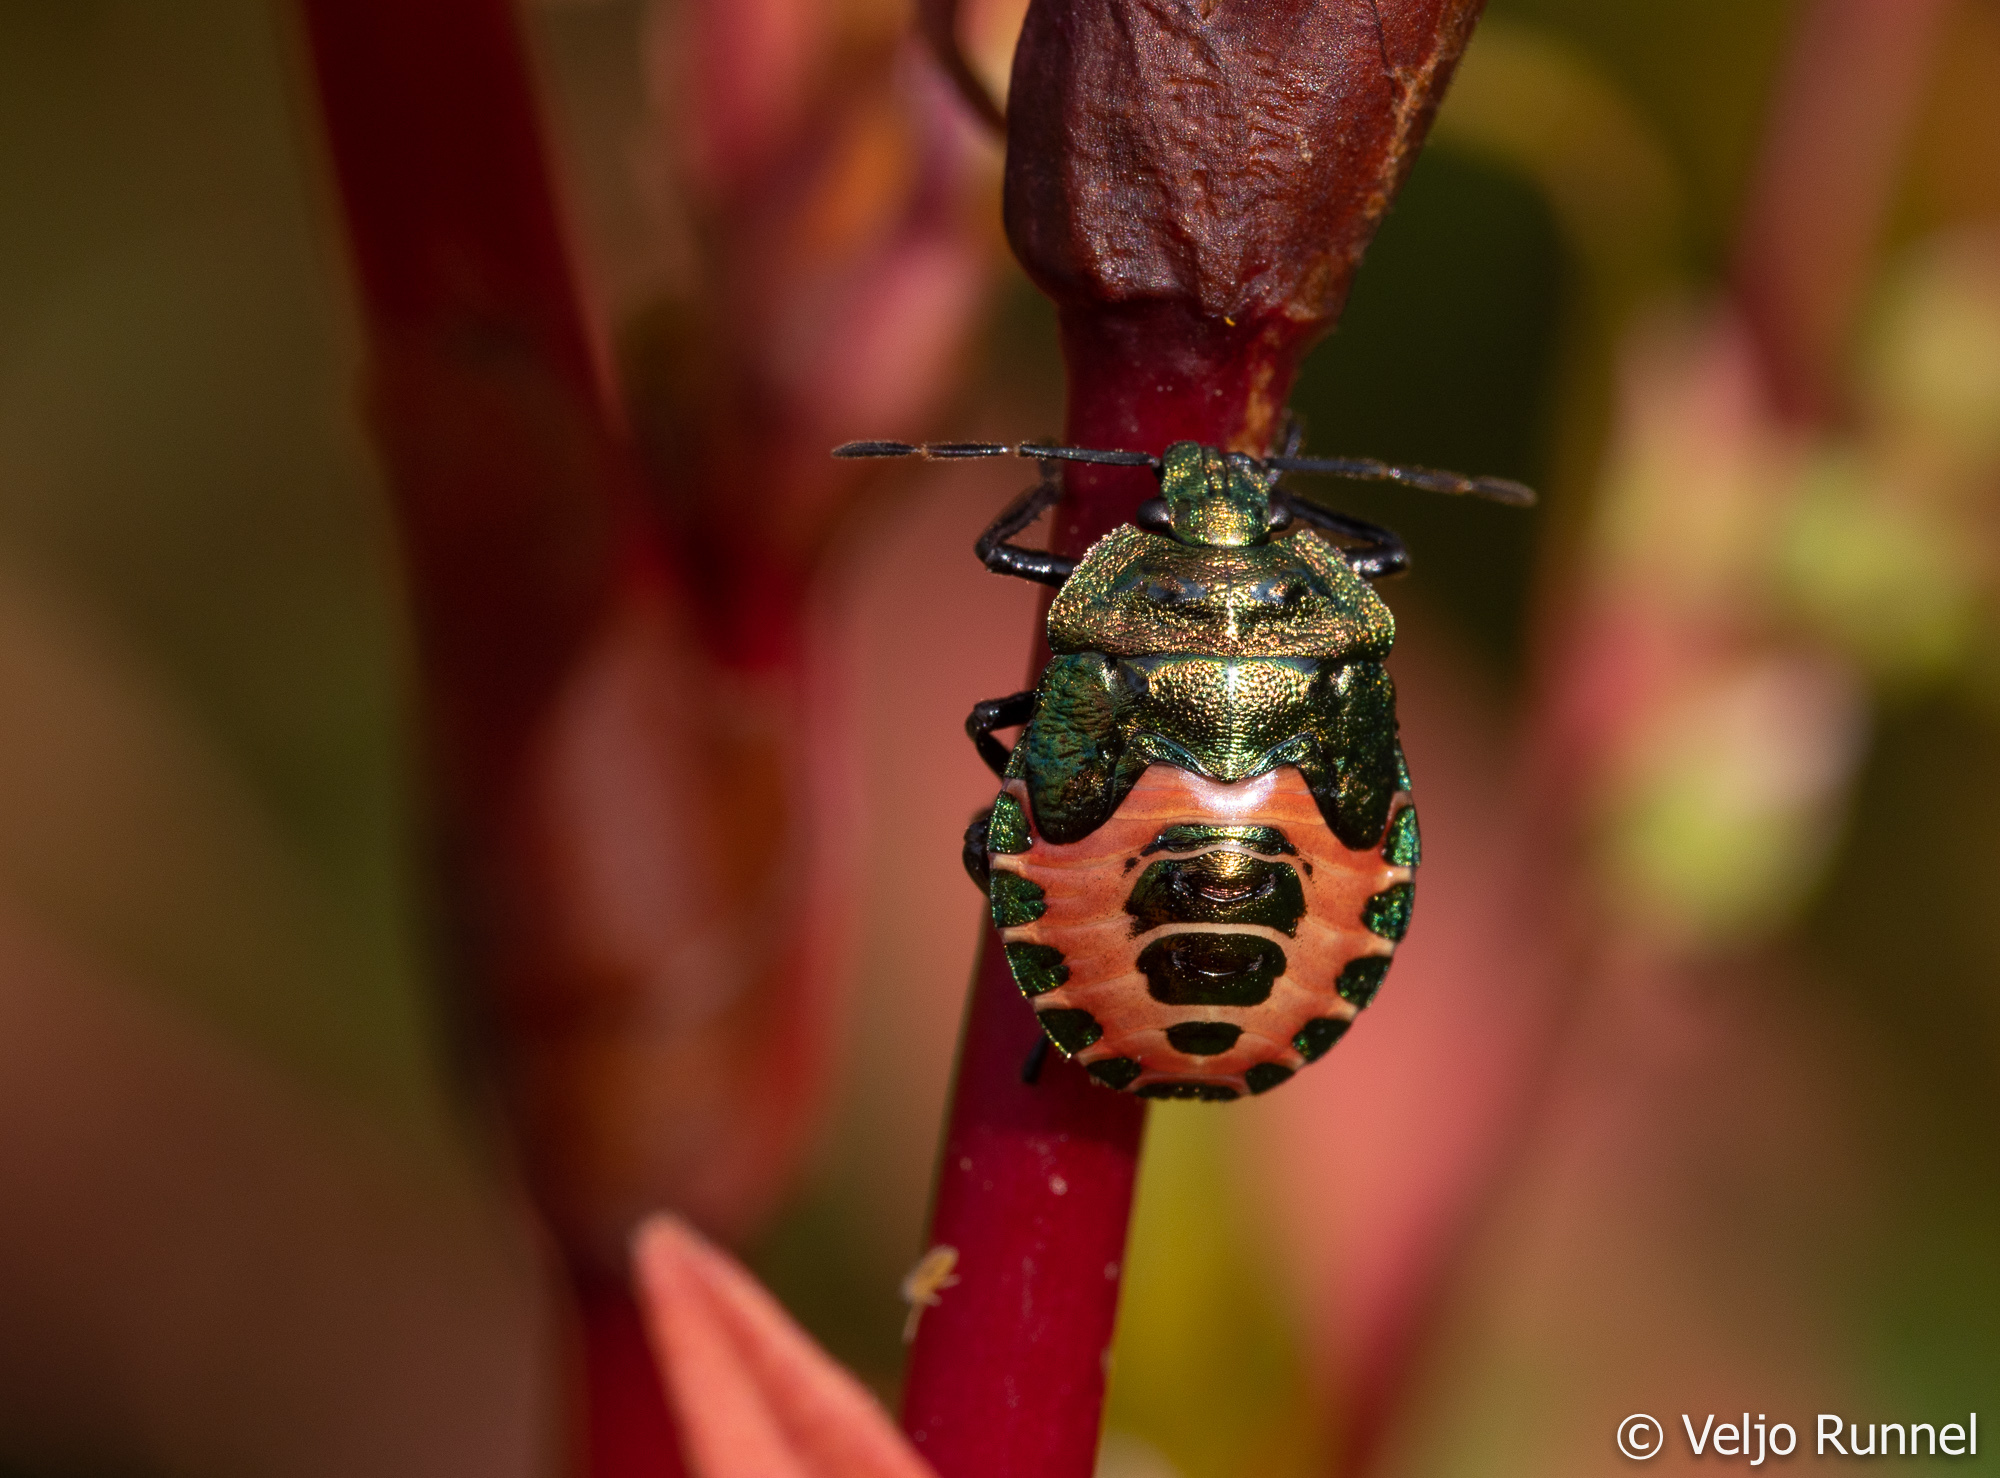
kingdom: Animalia
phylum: Arthropoda
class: Insecta
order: Hemiptera
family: Pentatomidae
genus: Troilus
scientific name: Troilus luridus
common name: Bronze shieldbug
